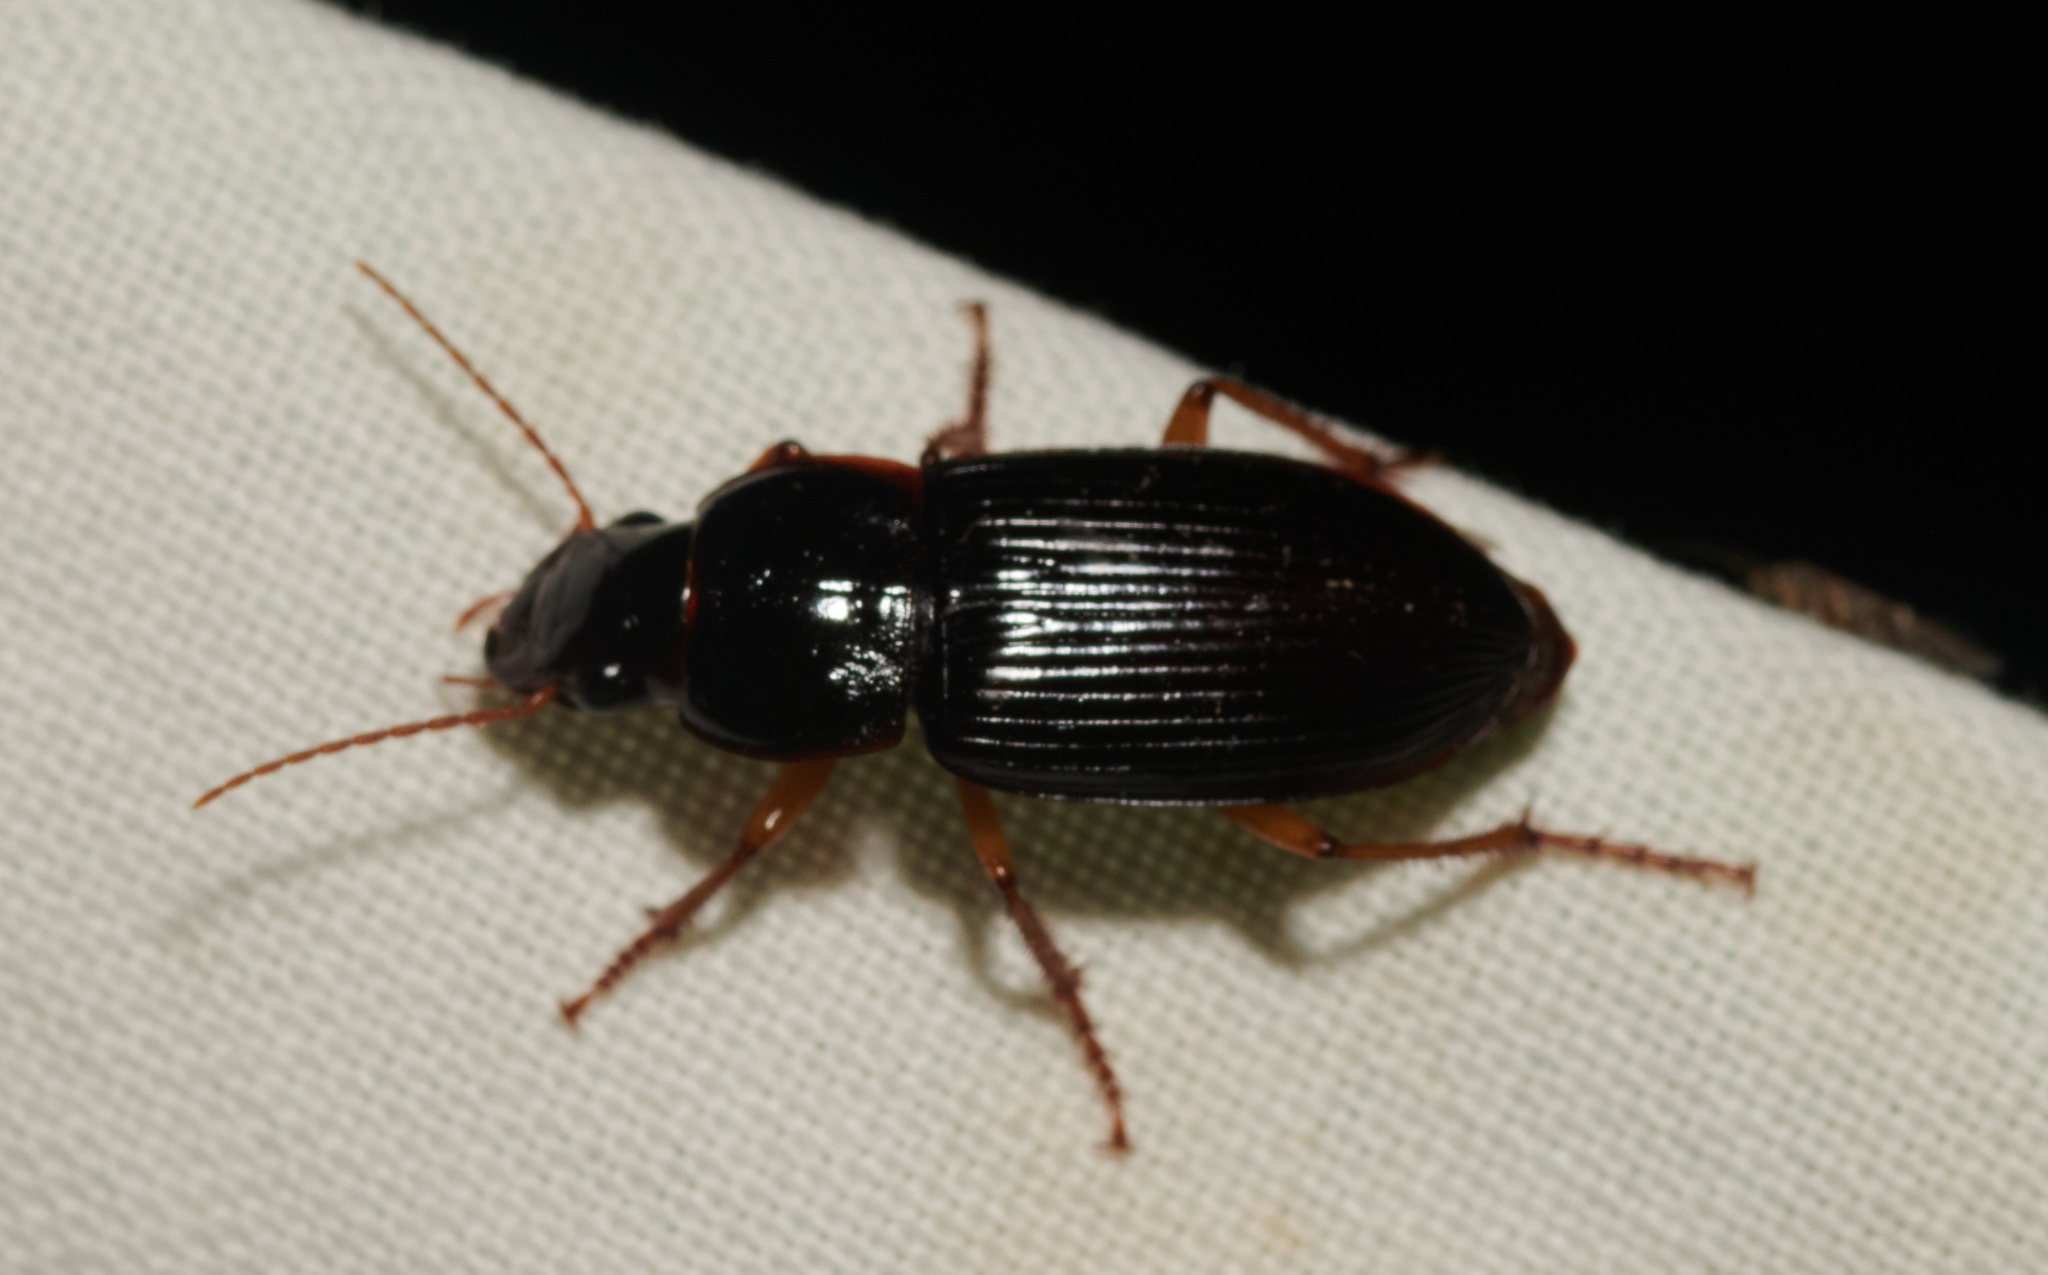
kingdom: Animalia
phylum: Arthropoda
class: Insecta
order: Coleoptera
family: Carabidae
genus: Harpalus
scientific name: Harpalus pensylvanicus
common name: Pennsylvania dingy ground beetle
